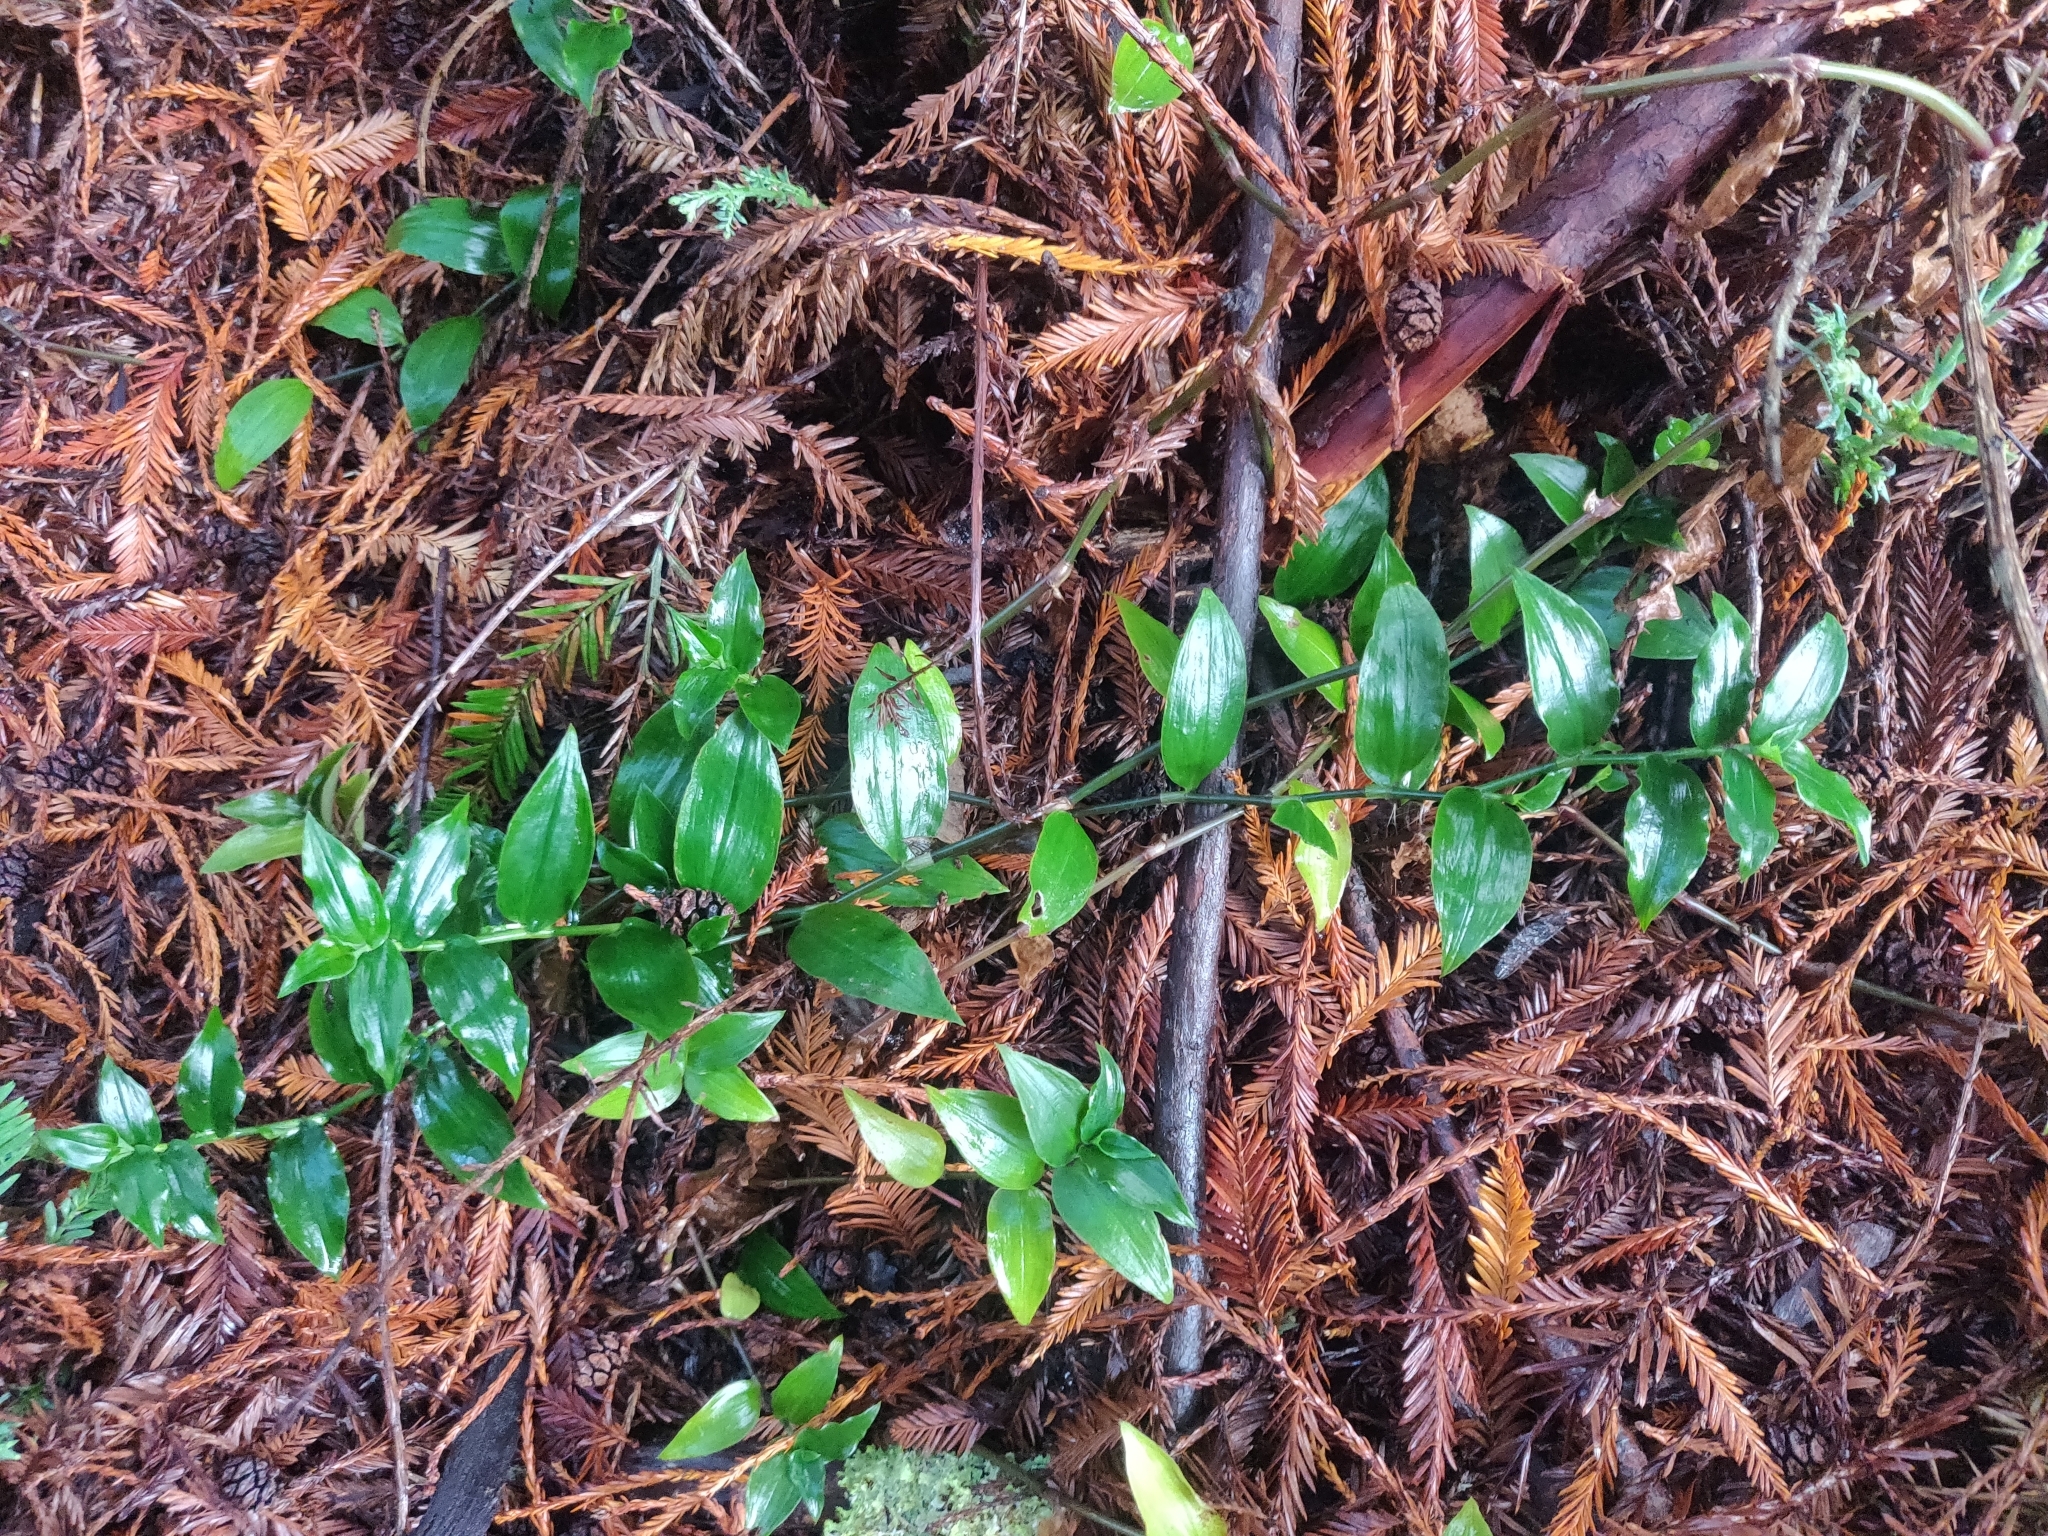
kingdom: Plantae
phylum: Tracheophyta
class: Liliopsida
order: Commelinales
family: Commelinaceae
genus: Tradescantia
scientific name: Tradescantia fluminensis
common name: Wandering-jew
